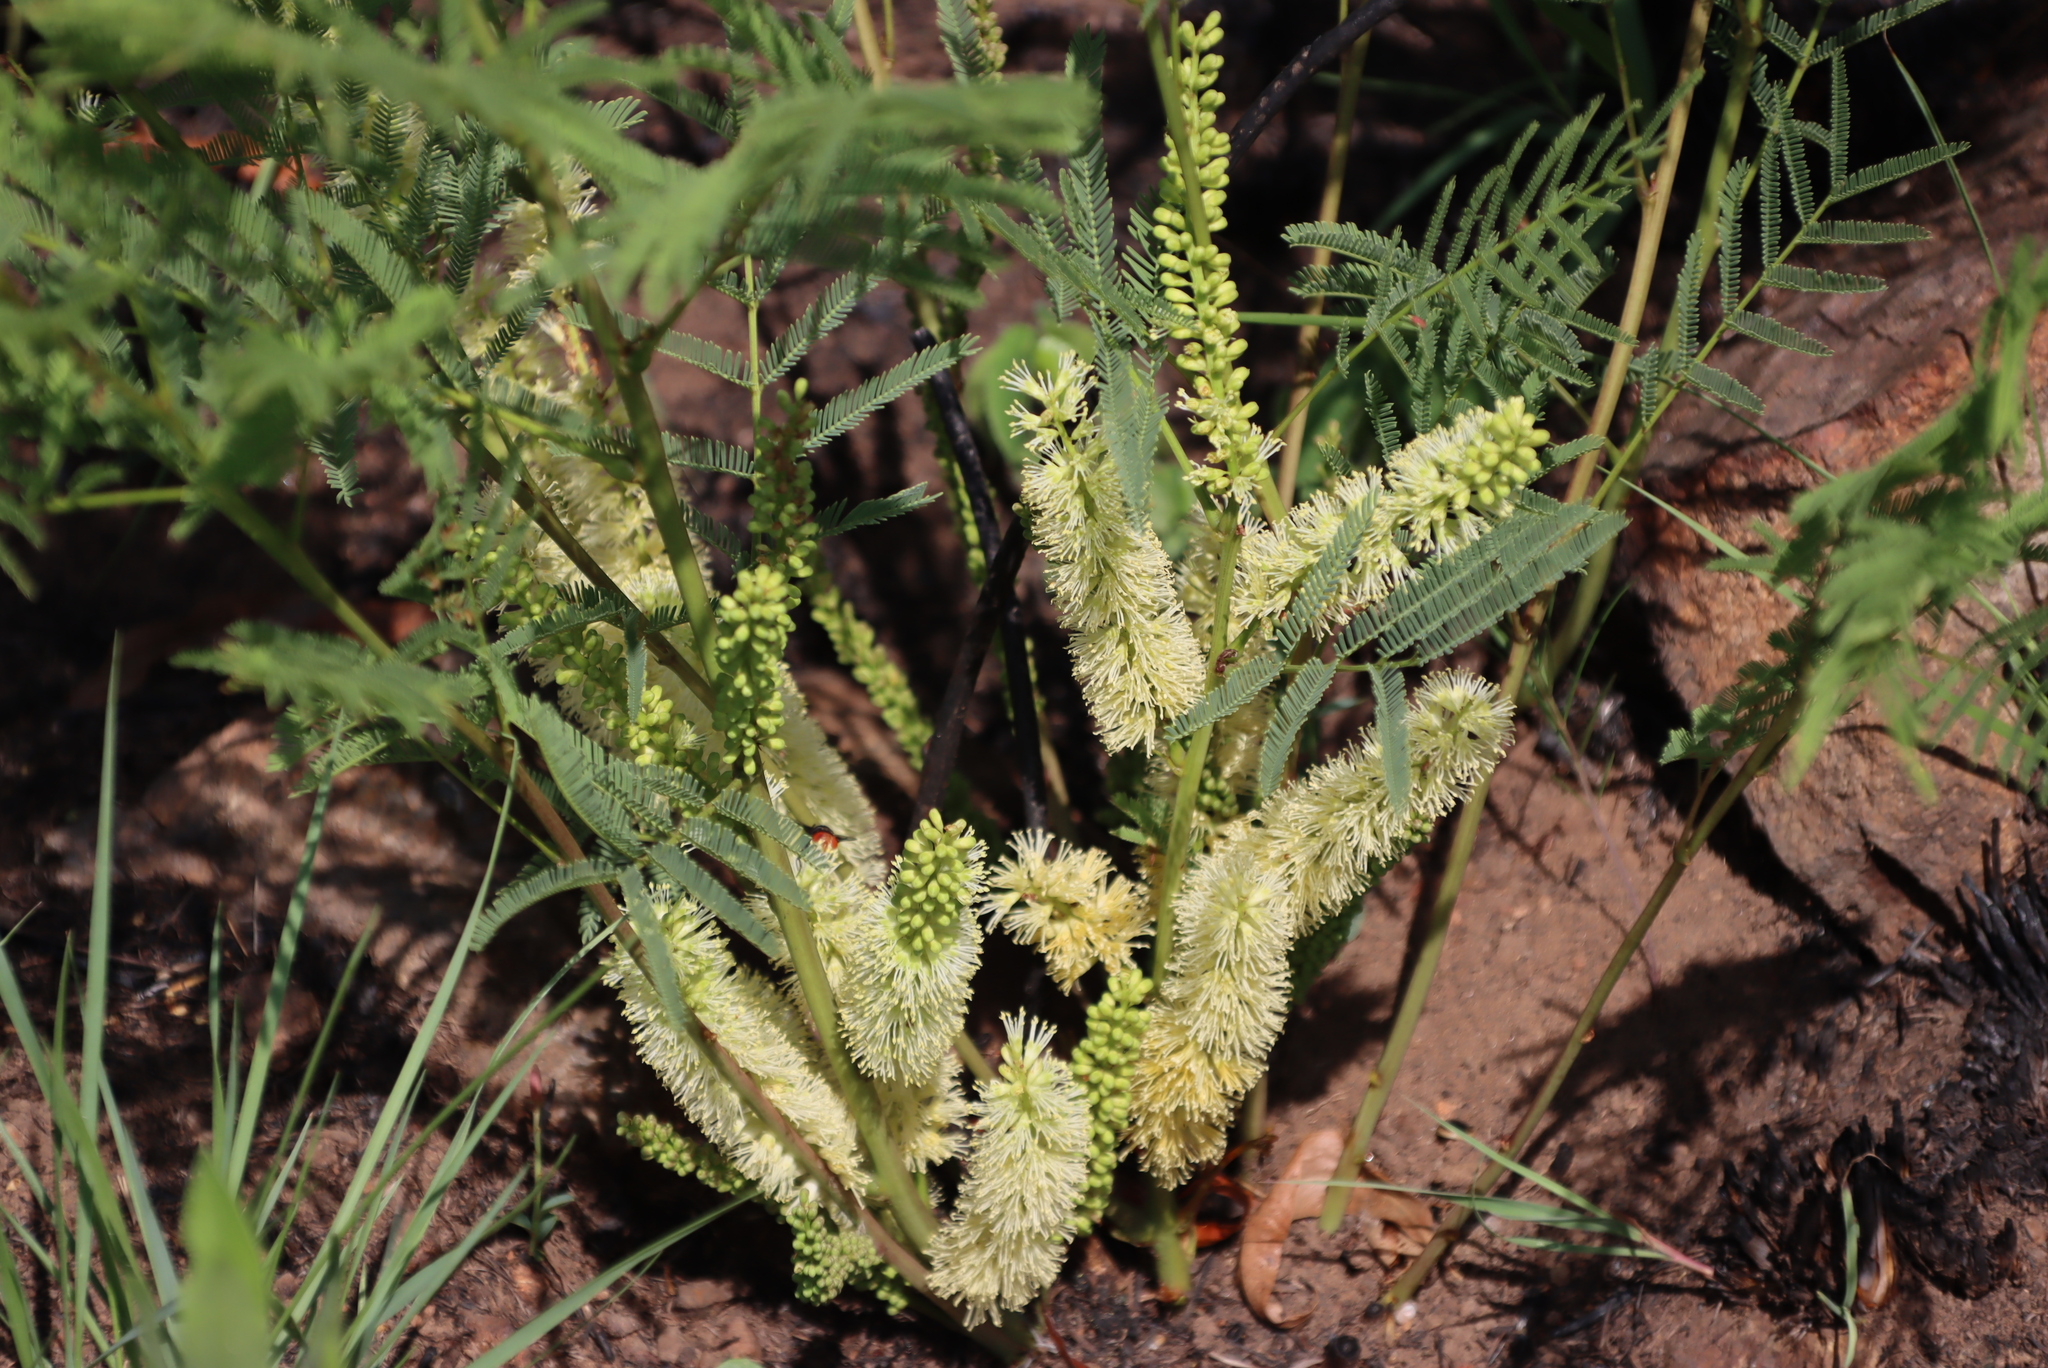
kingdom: Plantae
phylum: Tracheophyta
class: Magnoliopsida
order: Fabales
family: Fabaceae
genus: Elephantorrhiza
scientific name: Elephantorrhiza elephantina
